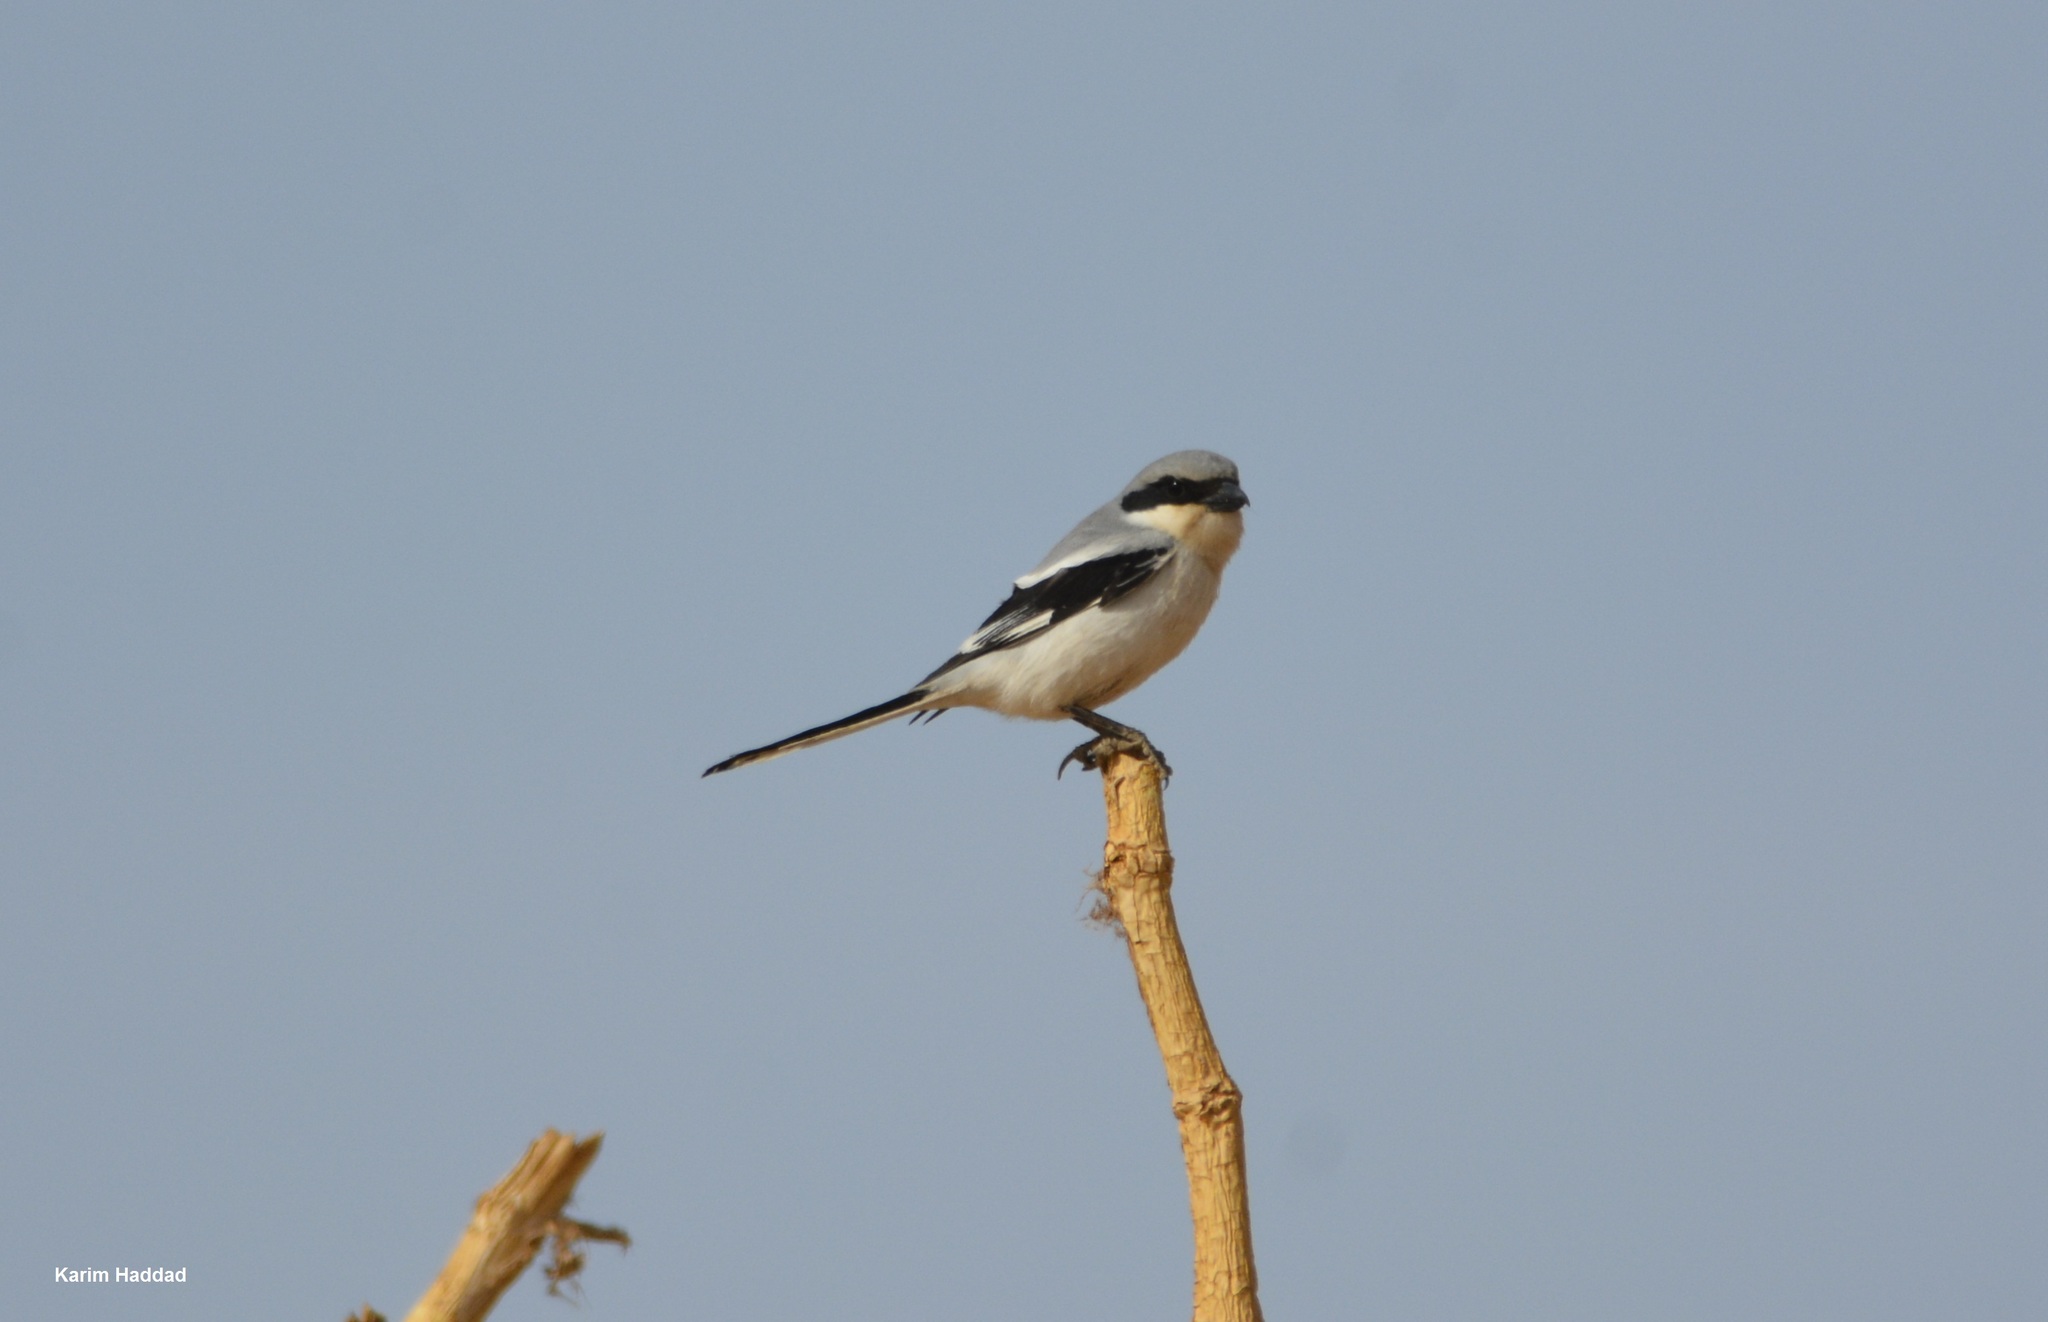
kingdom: Animalia
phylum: Chordata
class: Aves
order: Passeriformes
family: Laniidae
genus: Lanius
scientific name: Lanius excubitor
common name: Great grey shrike
